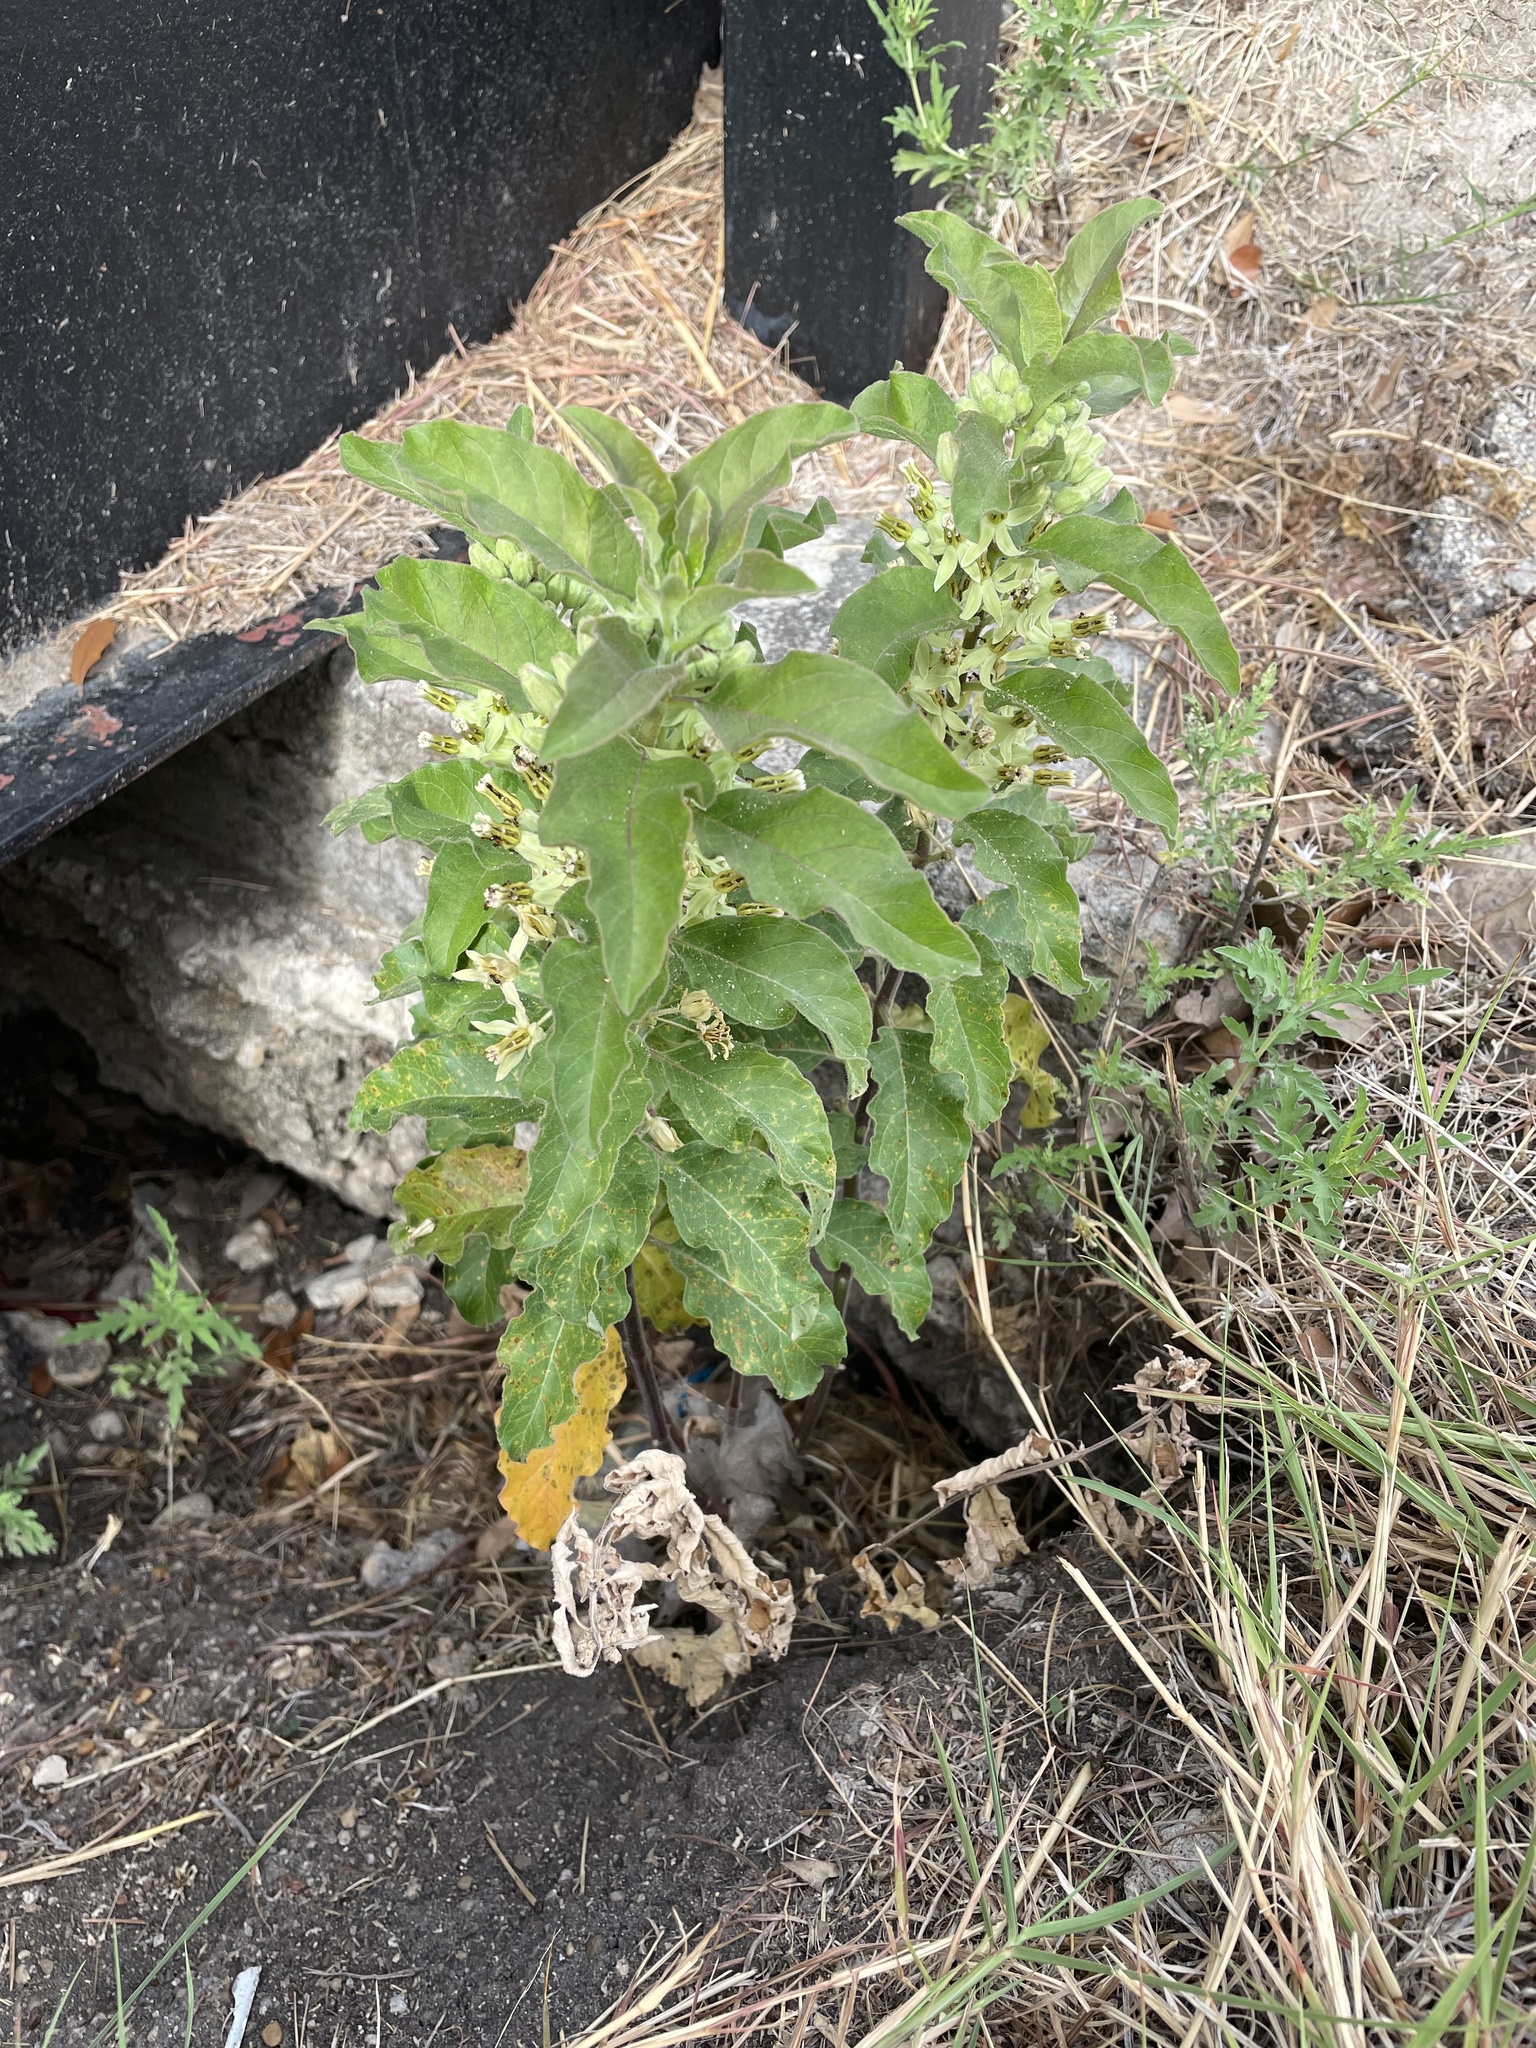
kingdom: Plantae
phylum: Tracheophyta
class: Magnoliopsida
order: Gentianales
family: Apocynaceae
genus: Asclepias
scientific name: Asclepias oenotheroides
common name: Zizotes milkweed
